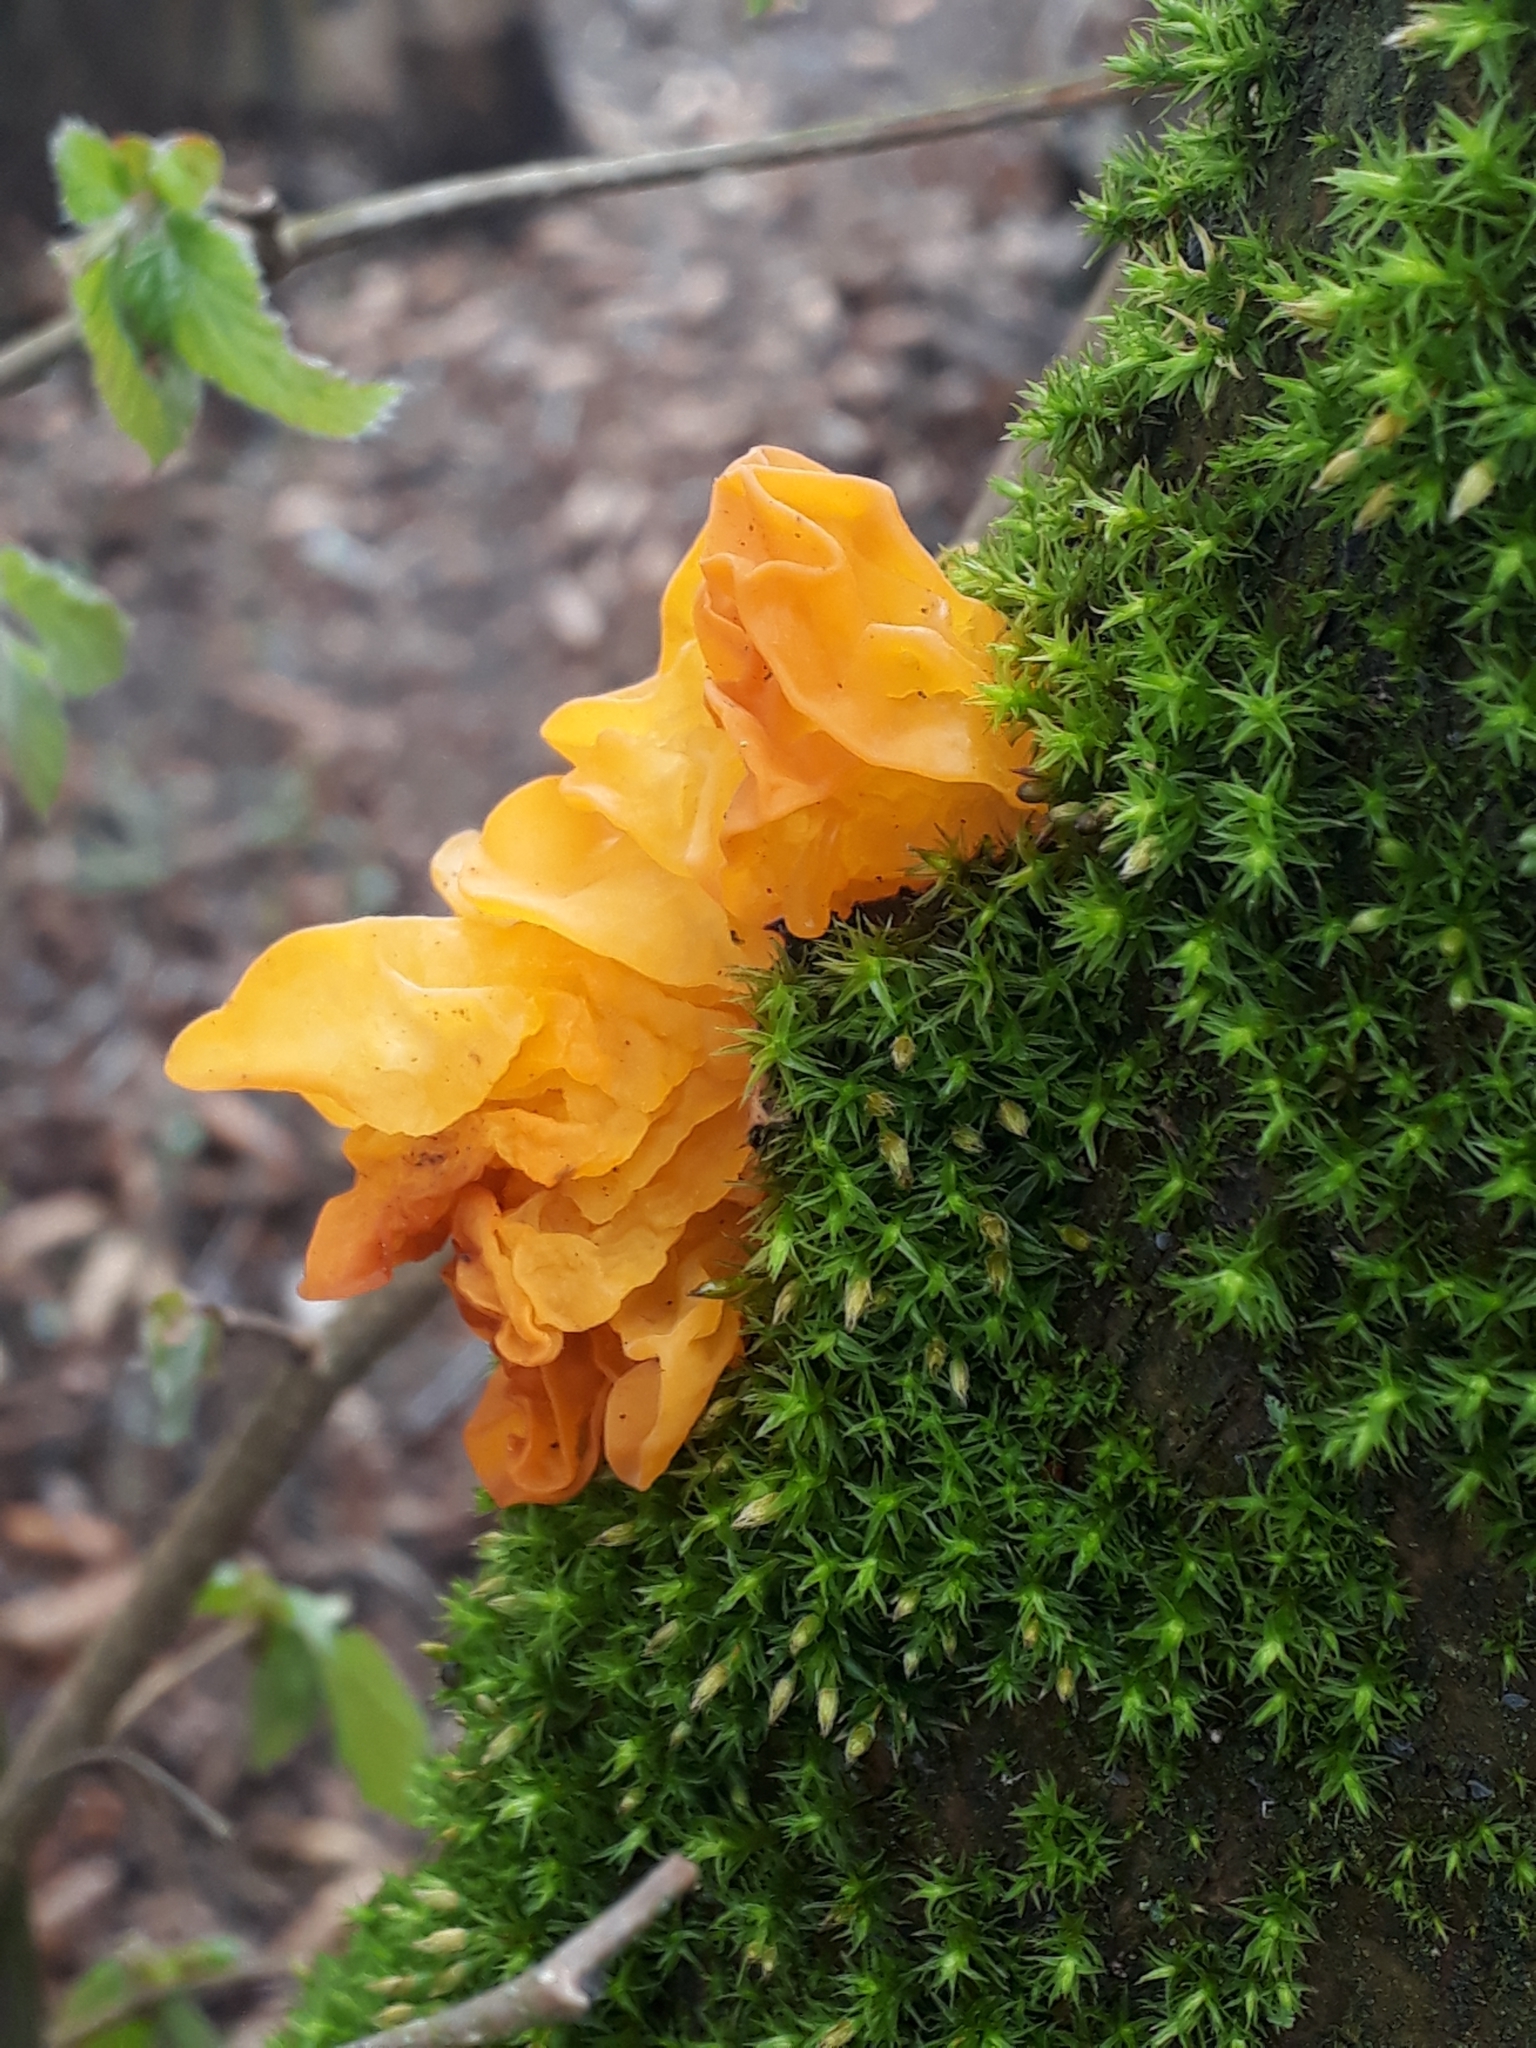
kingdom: Fungi
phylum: Basidiomycota
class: Tremellomycetes
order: Tremellales
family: Tremellaceae
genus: Tremella
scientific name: Tremella mesenterica
